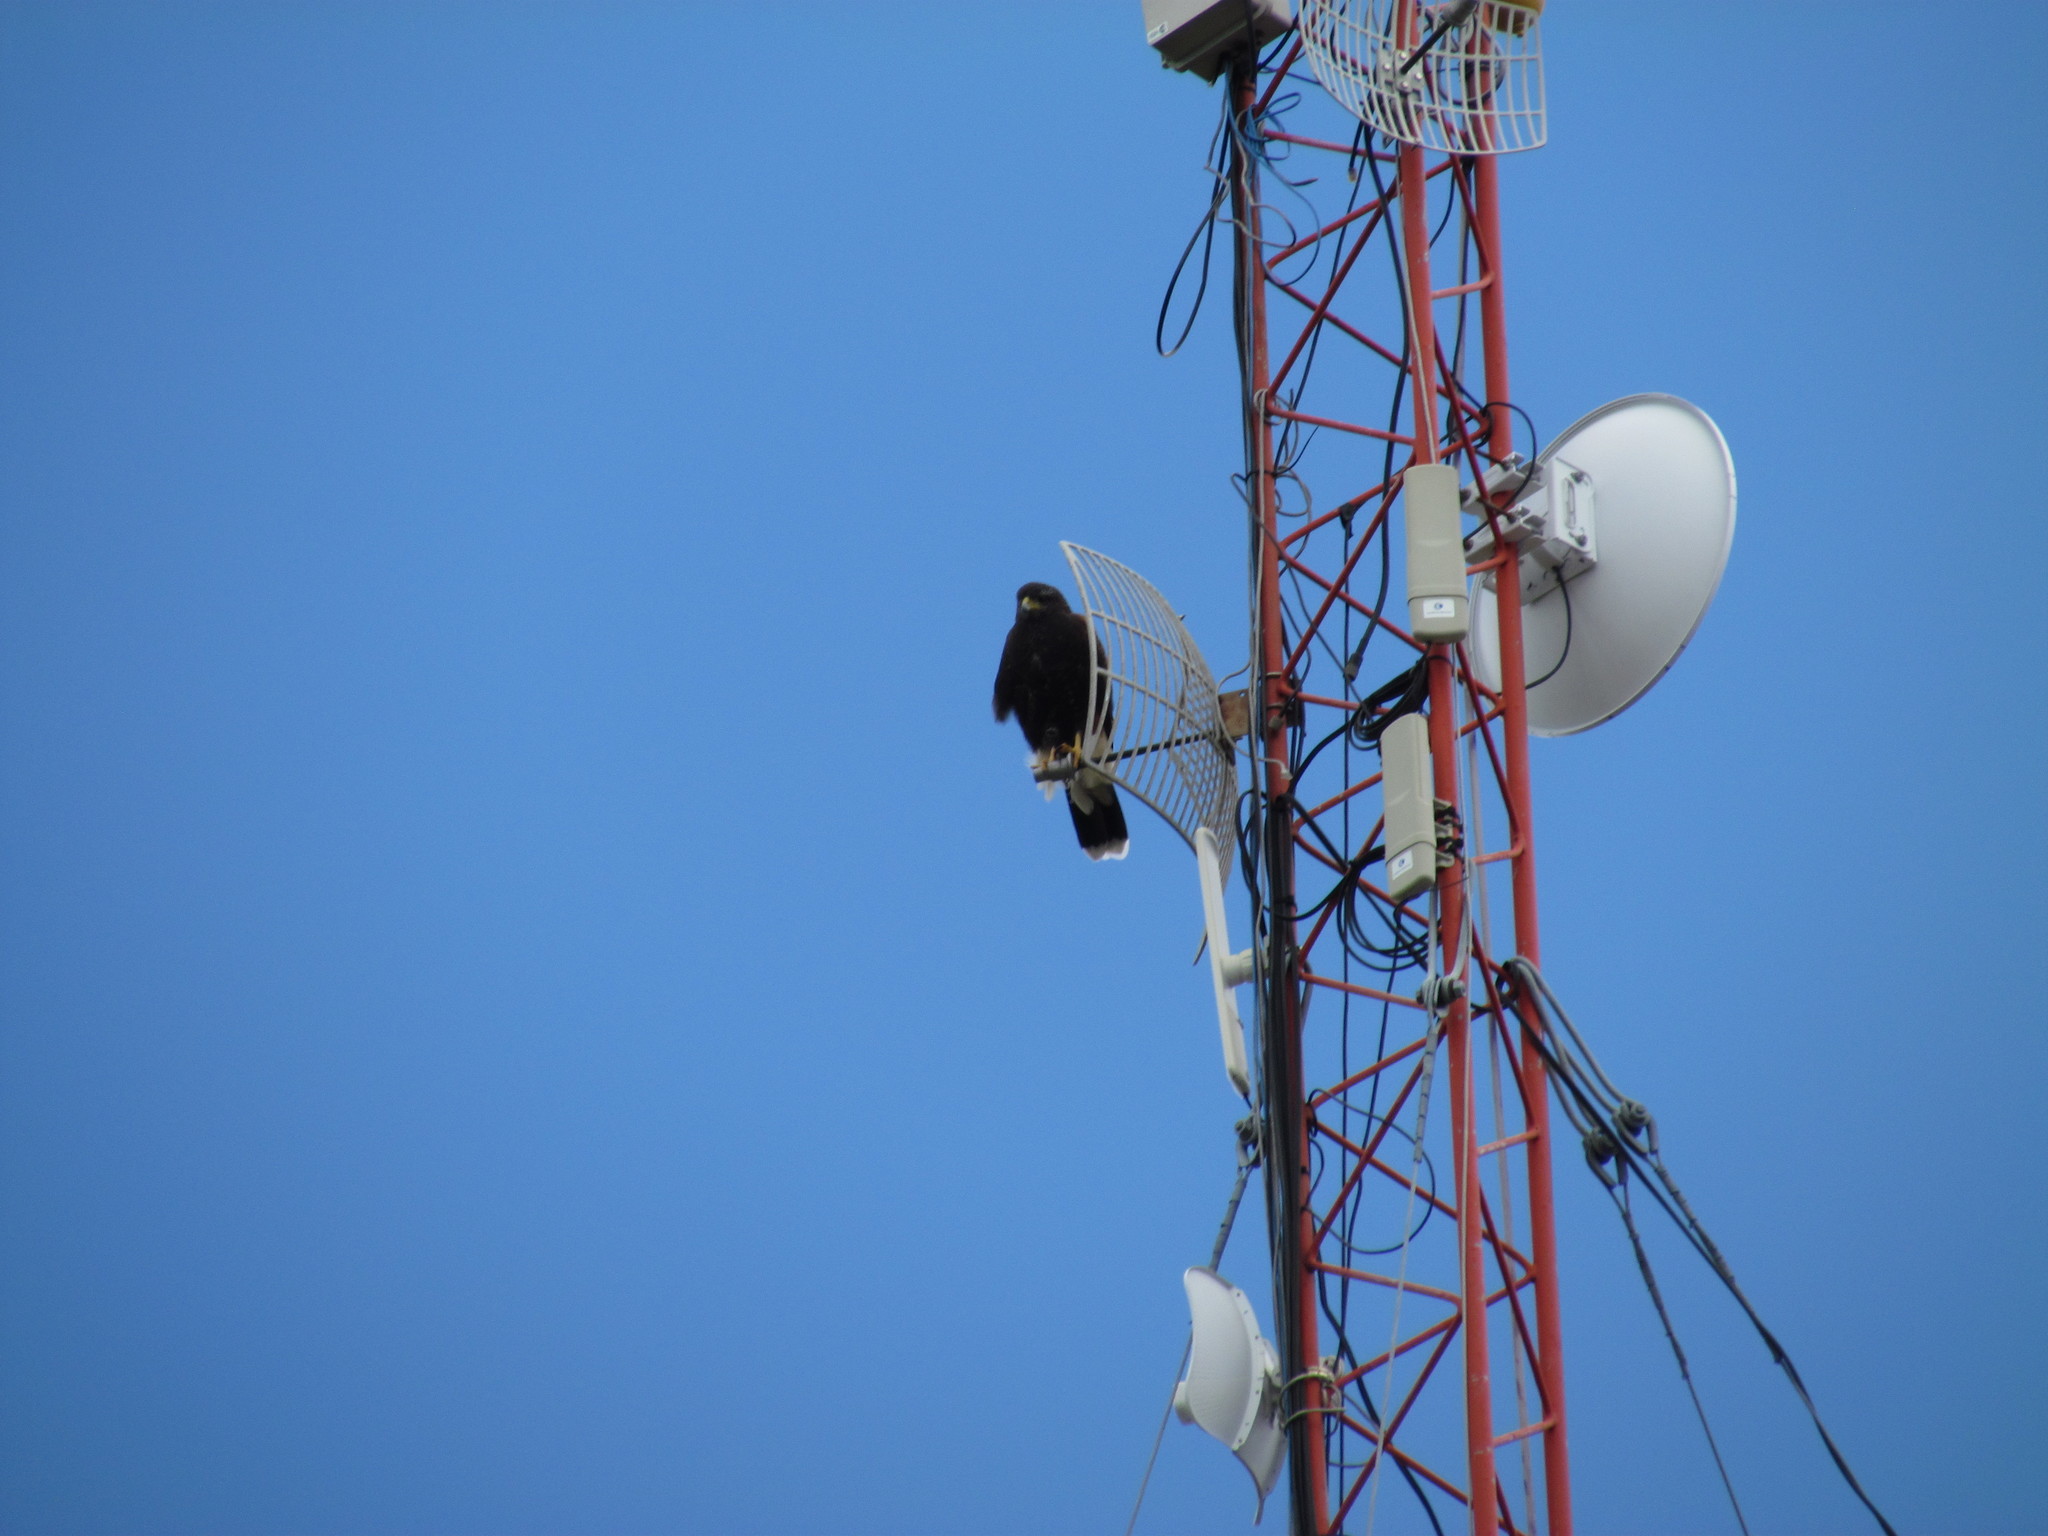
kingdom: Animalia
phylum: Chordata
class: Aves
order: Accipitriformes
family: Accipitridae
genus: Parabuteo
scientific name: Parabuteo unicinctus
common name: Harris's hawk
